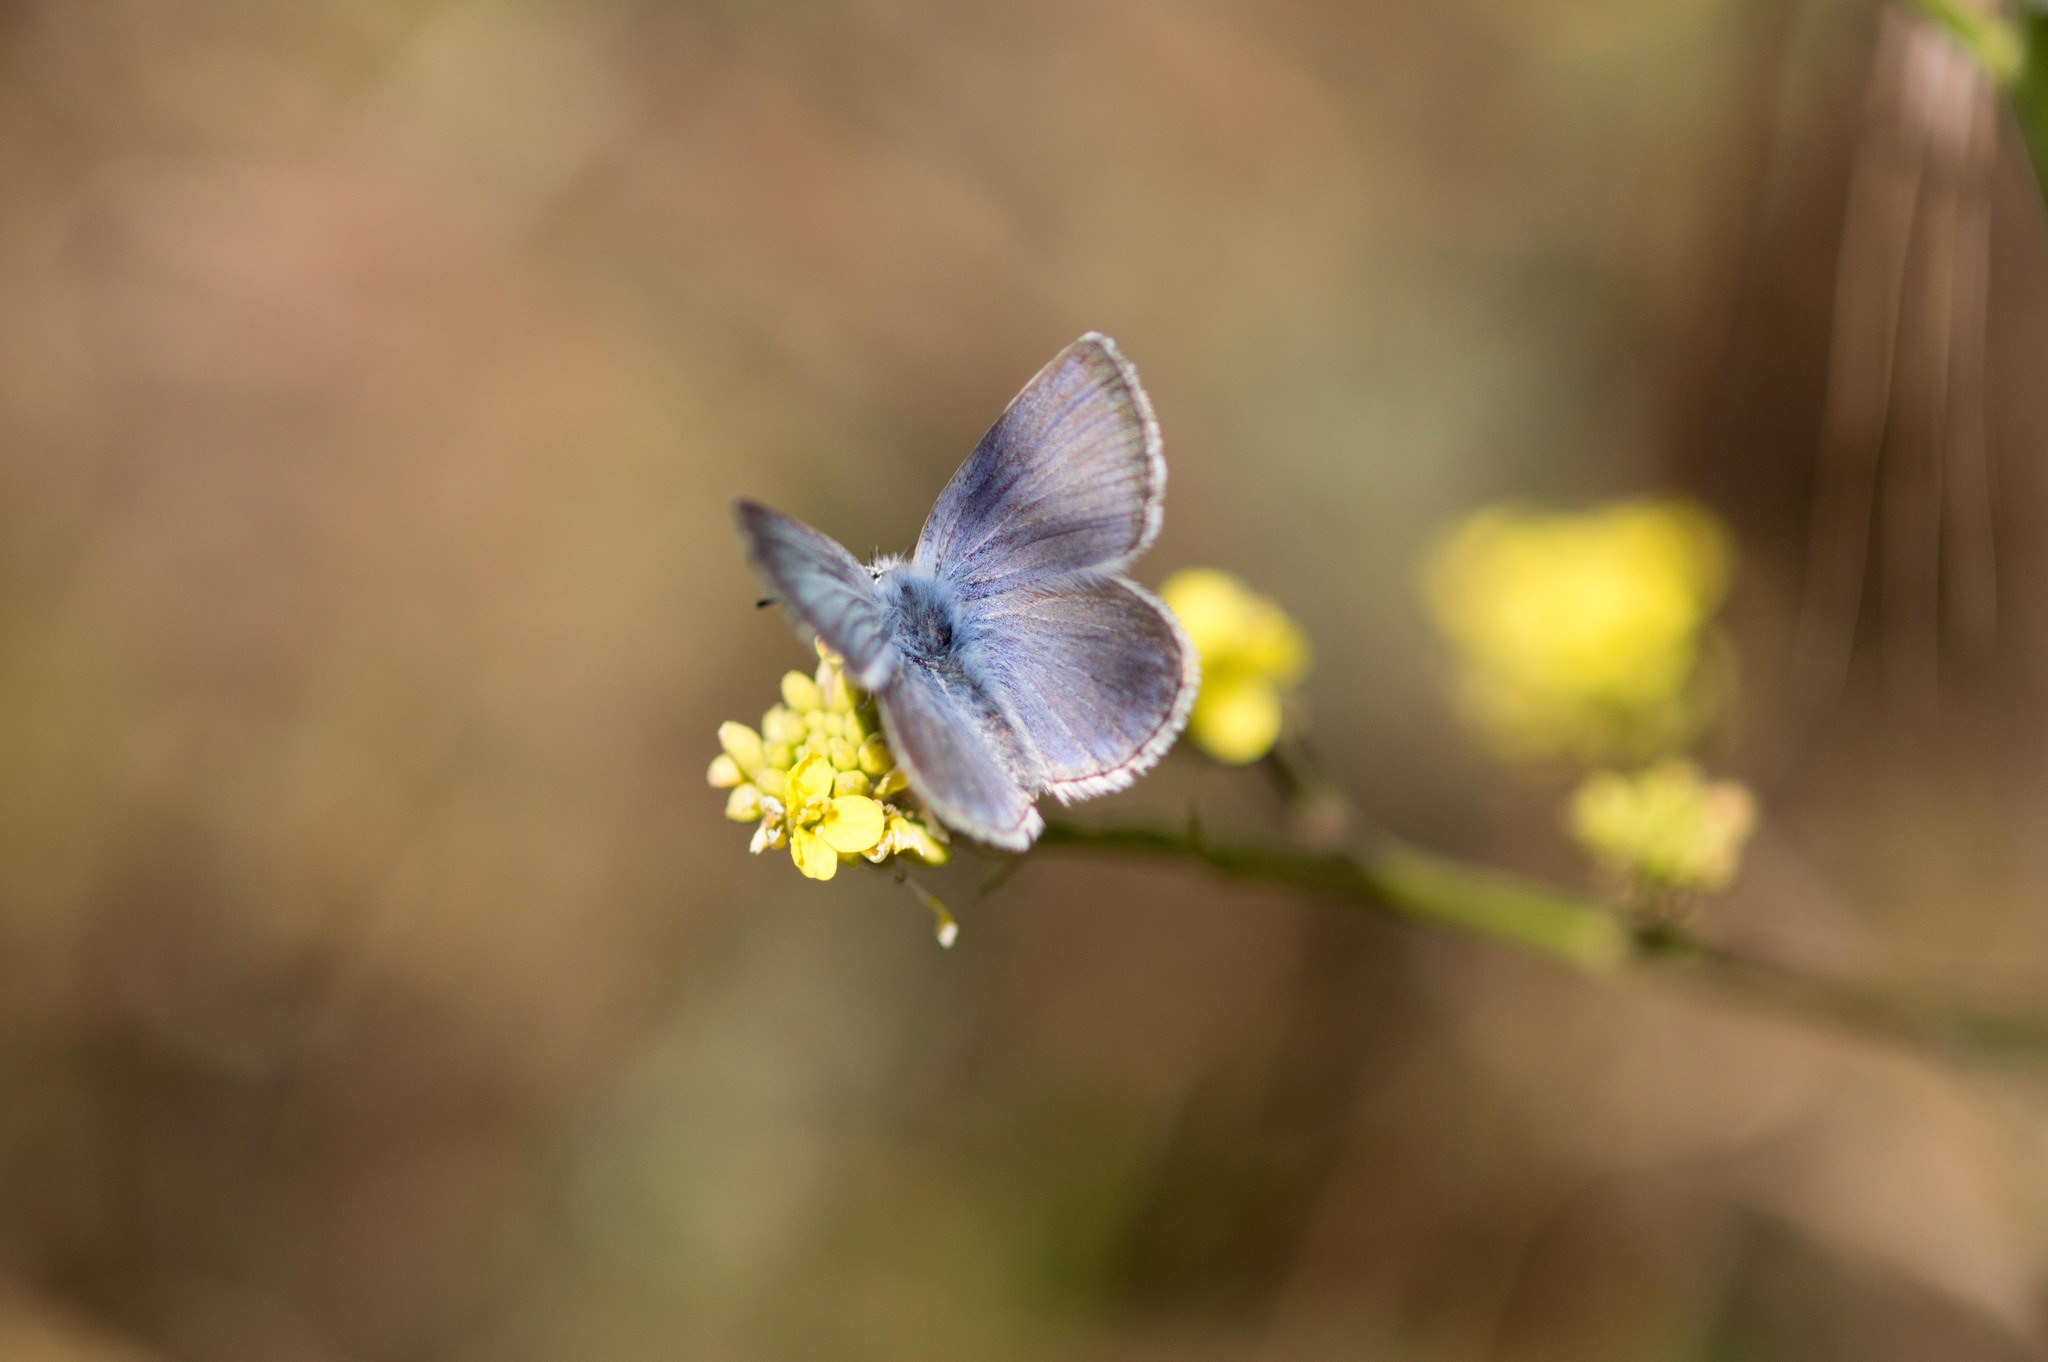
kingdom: Animalia
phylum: Arthropoda
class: Insecta
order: Lepidoptera
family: Lycaenidae
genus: Icaricia
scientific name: Icaricia icarioides
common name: Boisduval's blue
